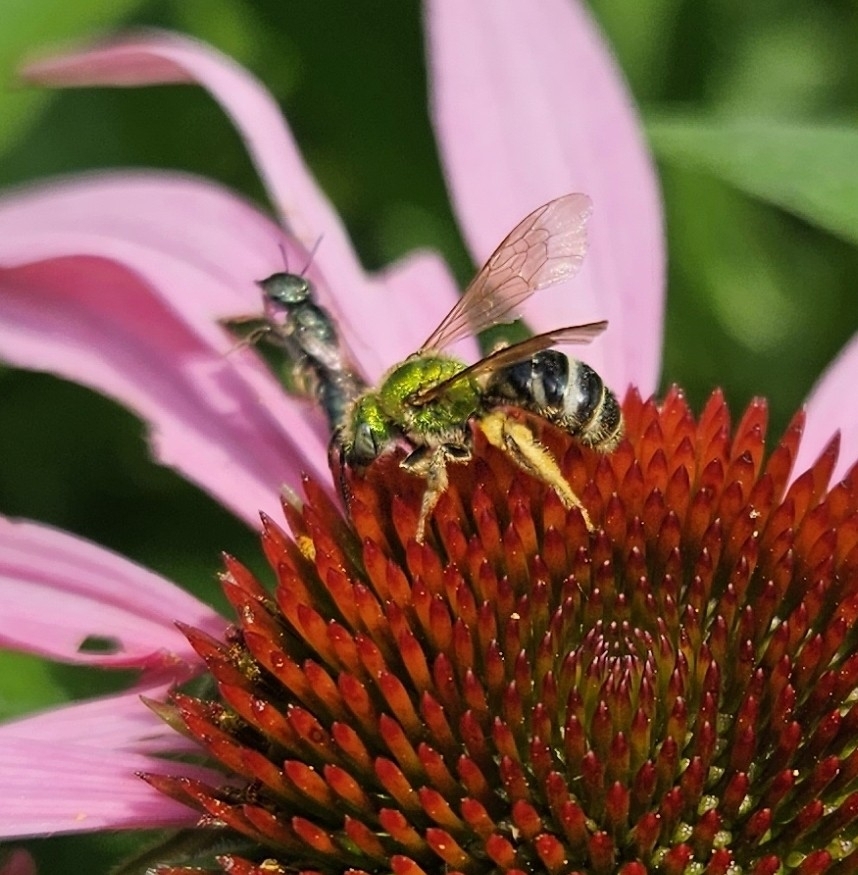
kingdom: Animalia
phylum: Arthropoda
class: Insecta
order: Hymenoptera
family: Halictidae
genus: Agapostemon
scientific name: Agapostemon virescens
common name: Bicolored striped sweat bee
